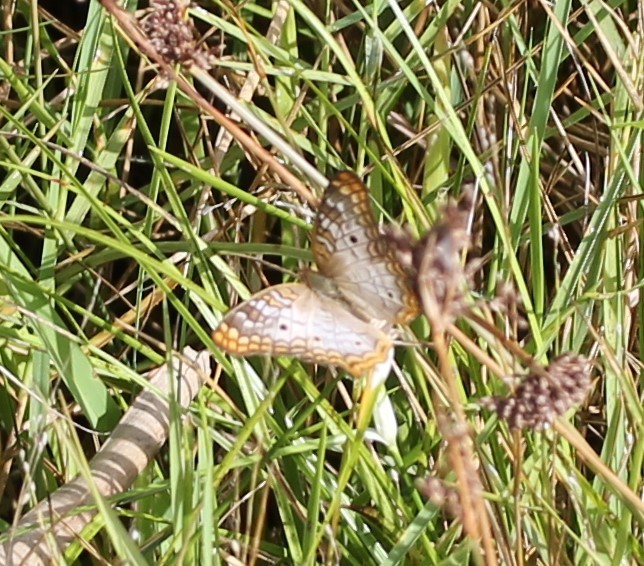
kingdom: Animalia
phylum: Arthropoda
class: Insecta
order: Lepidoptera
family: Nymphalidae
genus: Anartia
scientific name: Anartia jatrophae
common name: White peacock
